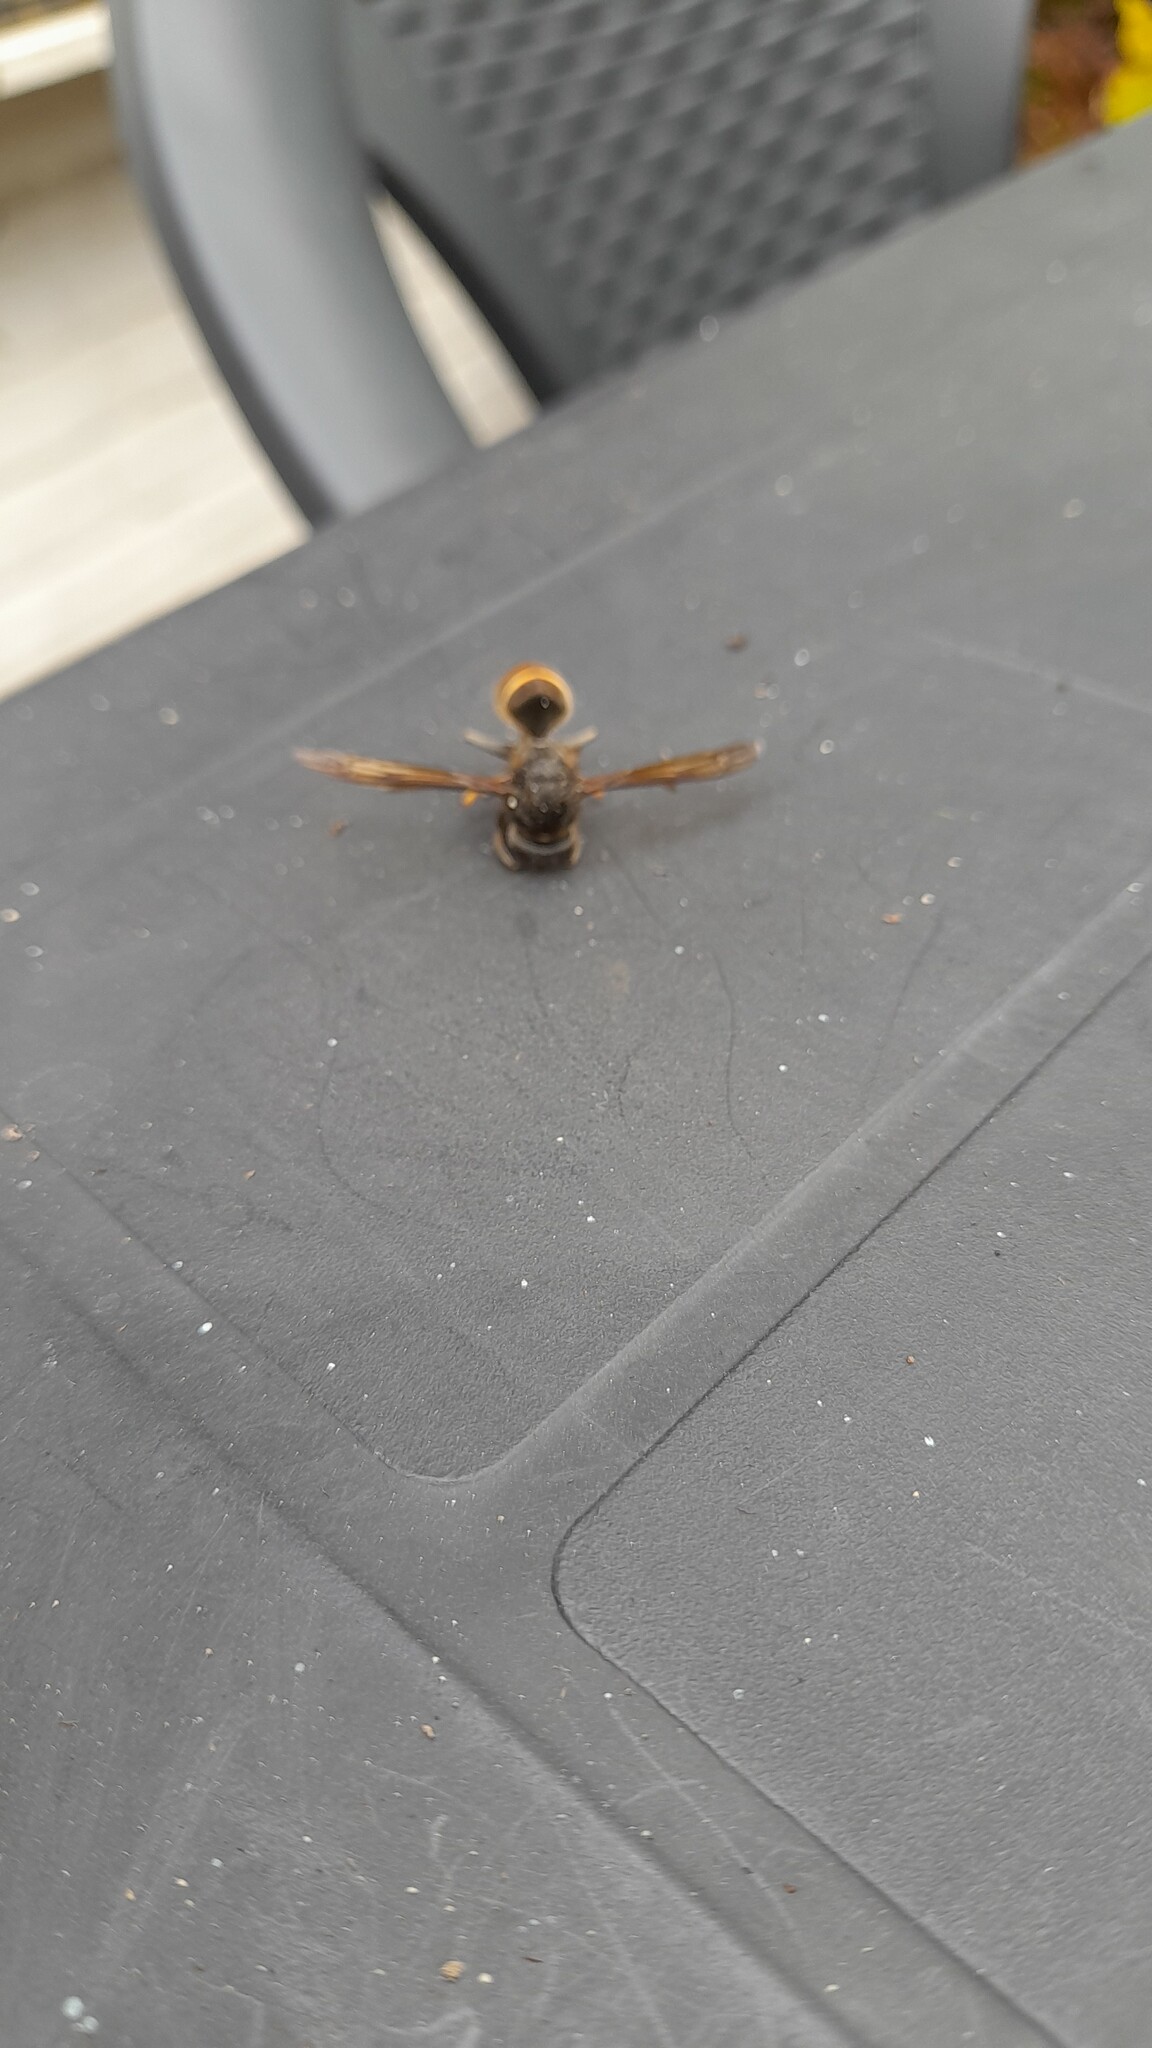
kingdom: Animalia
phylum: Arthropoda
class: Insecta
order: Hymenoptera
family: Vespidae
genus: Vespa
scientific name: Vespa velutina
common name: Asian hornet
